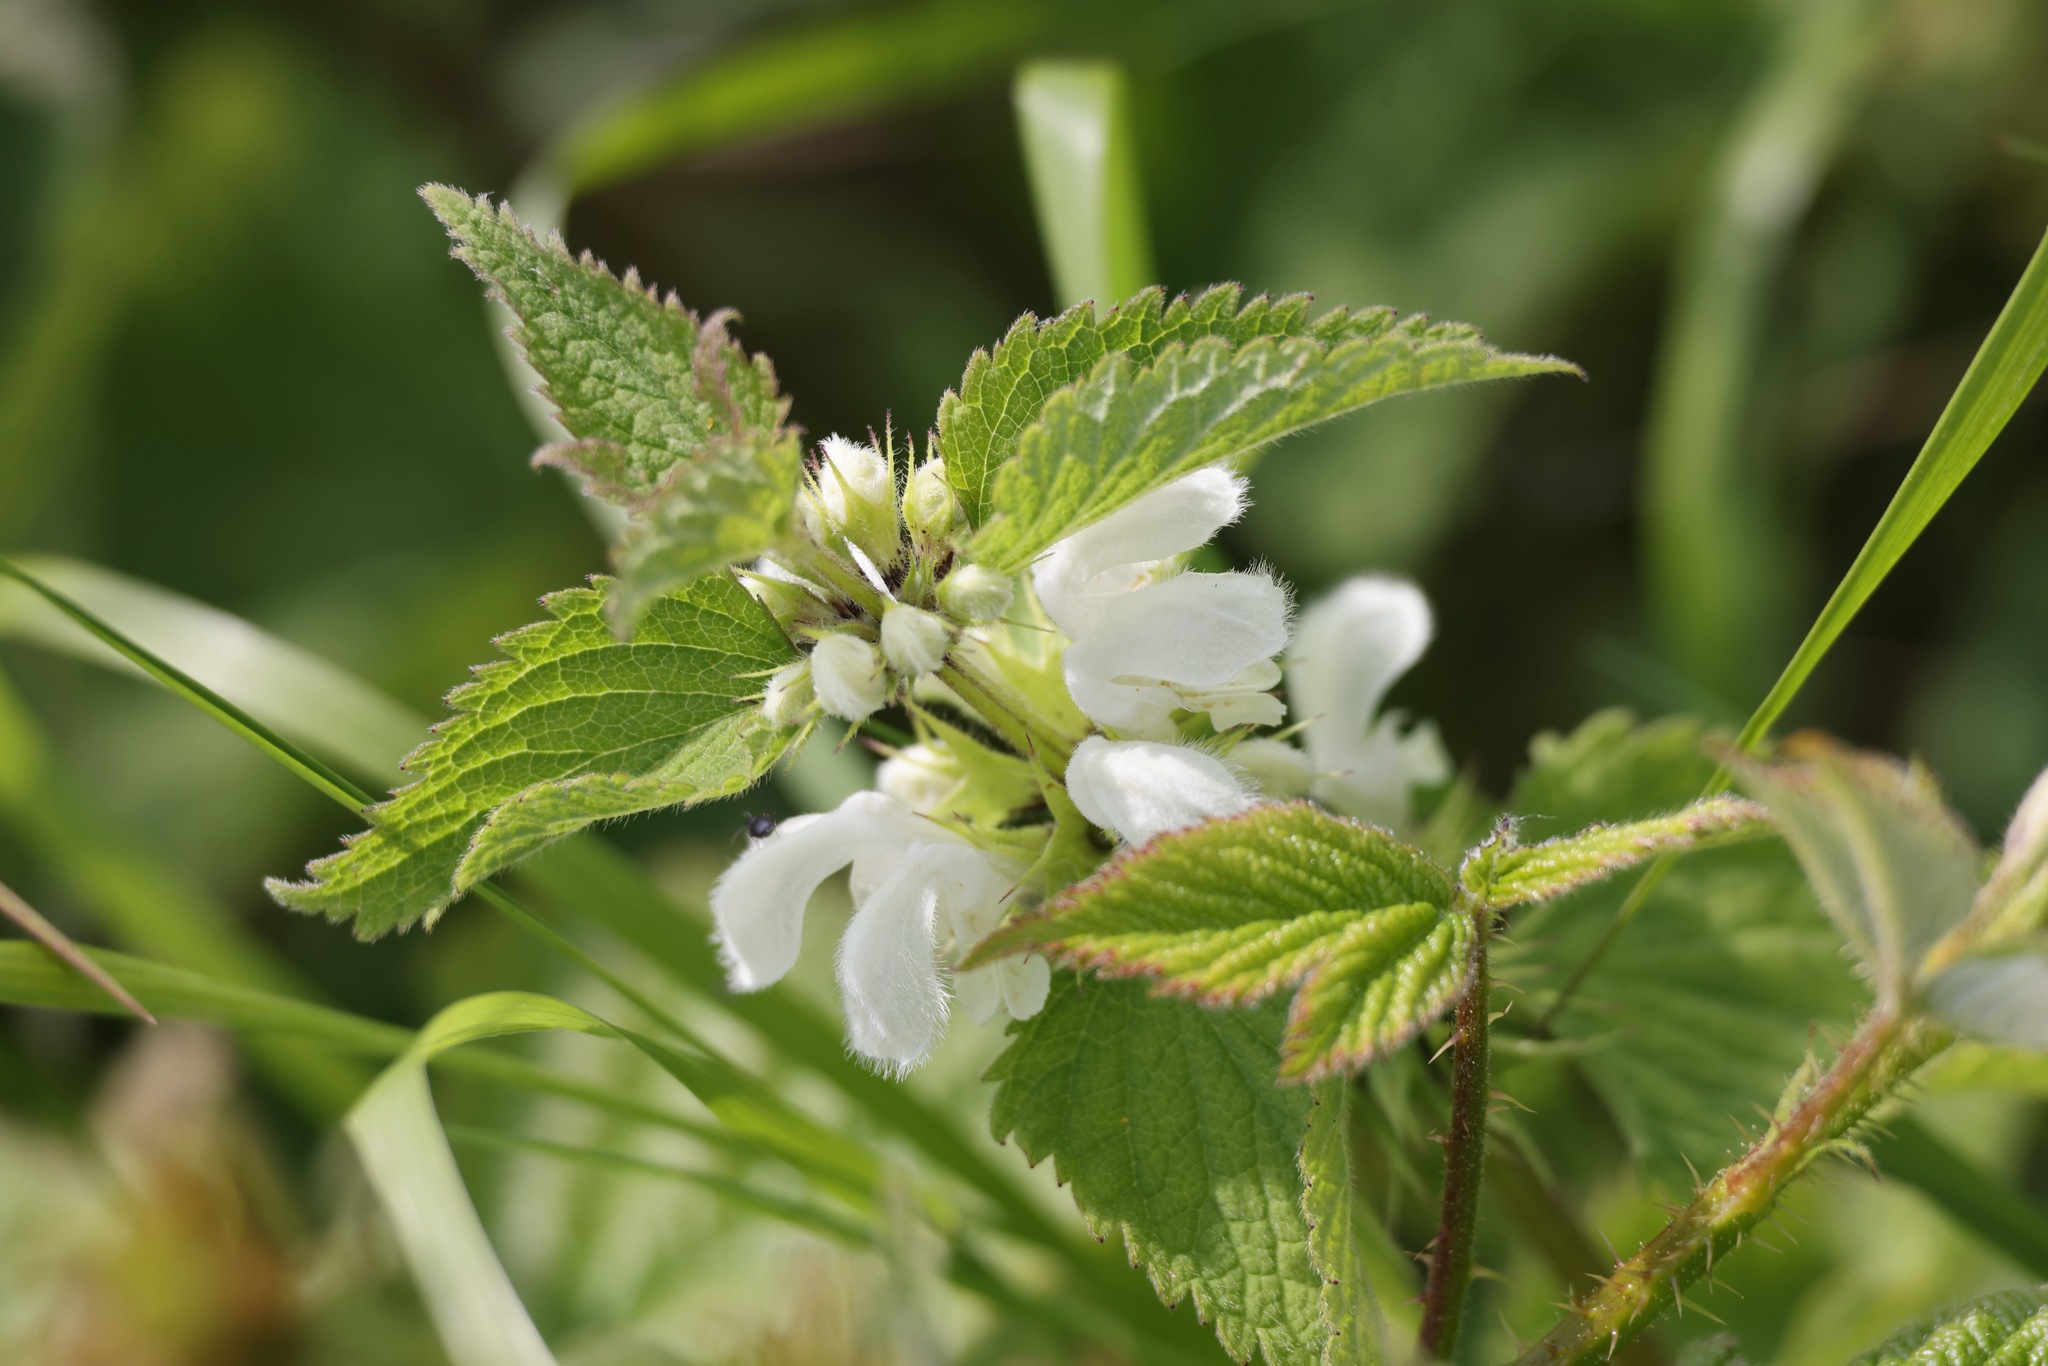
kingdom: Plantae
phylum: Tracheophyta
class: Magnoliopsida
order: Lamiales
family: Lamiaceae
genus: Lamium
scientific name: Lamium album
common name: White dead-nettle
